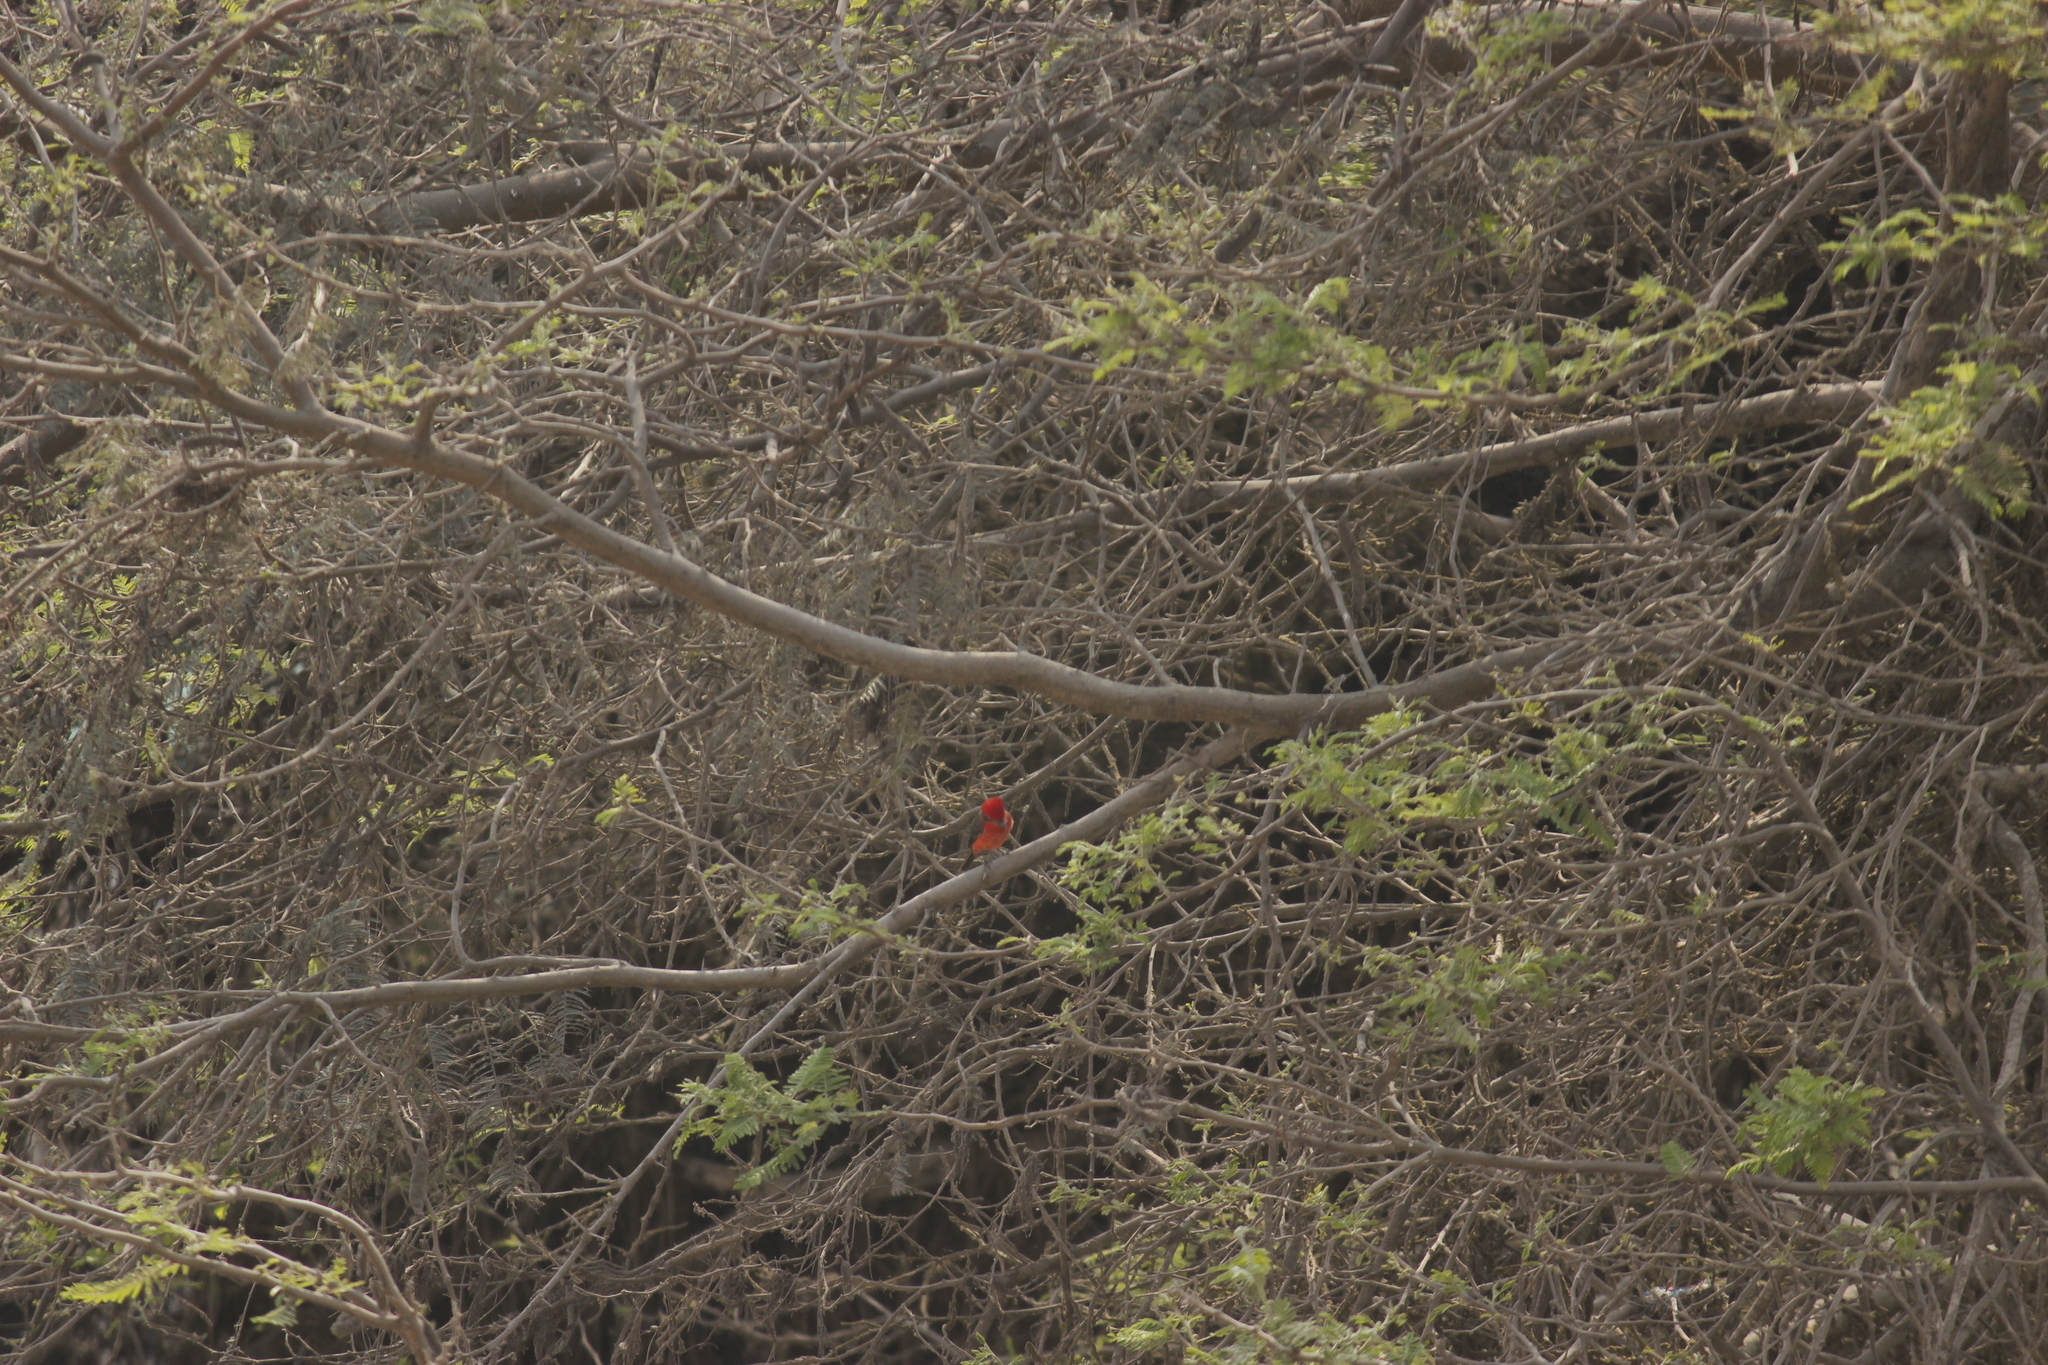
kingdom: Animalia
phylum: Chordata
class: Aves
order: Passeriformes
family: Tyrannidae
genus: Pyrocephalus
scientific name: Pyrocephalus rubinus
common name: Vermilion flycatcher
